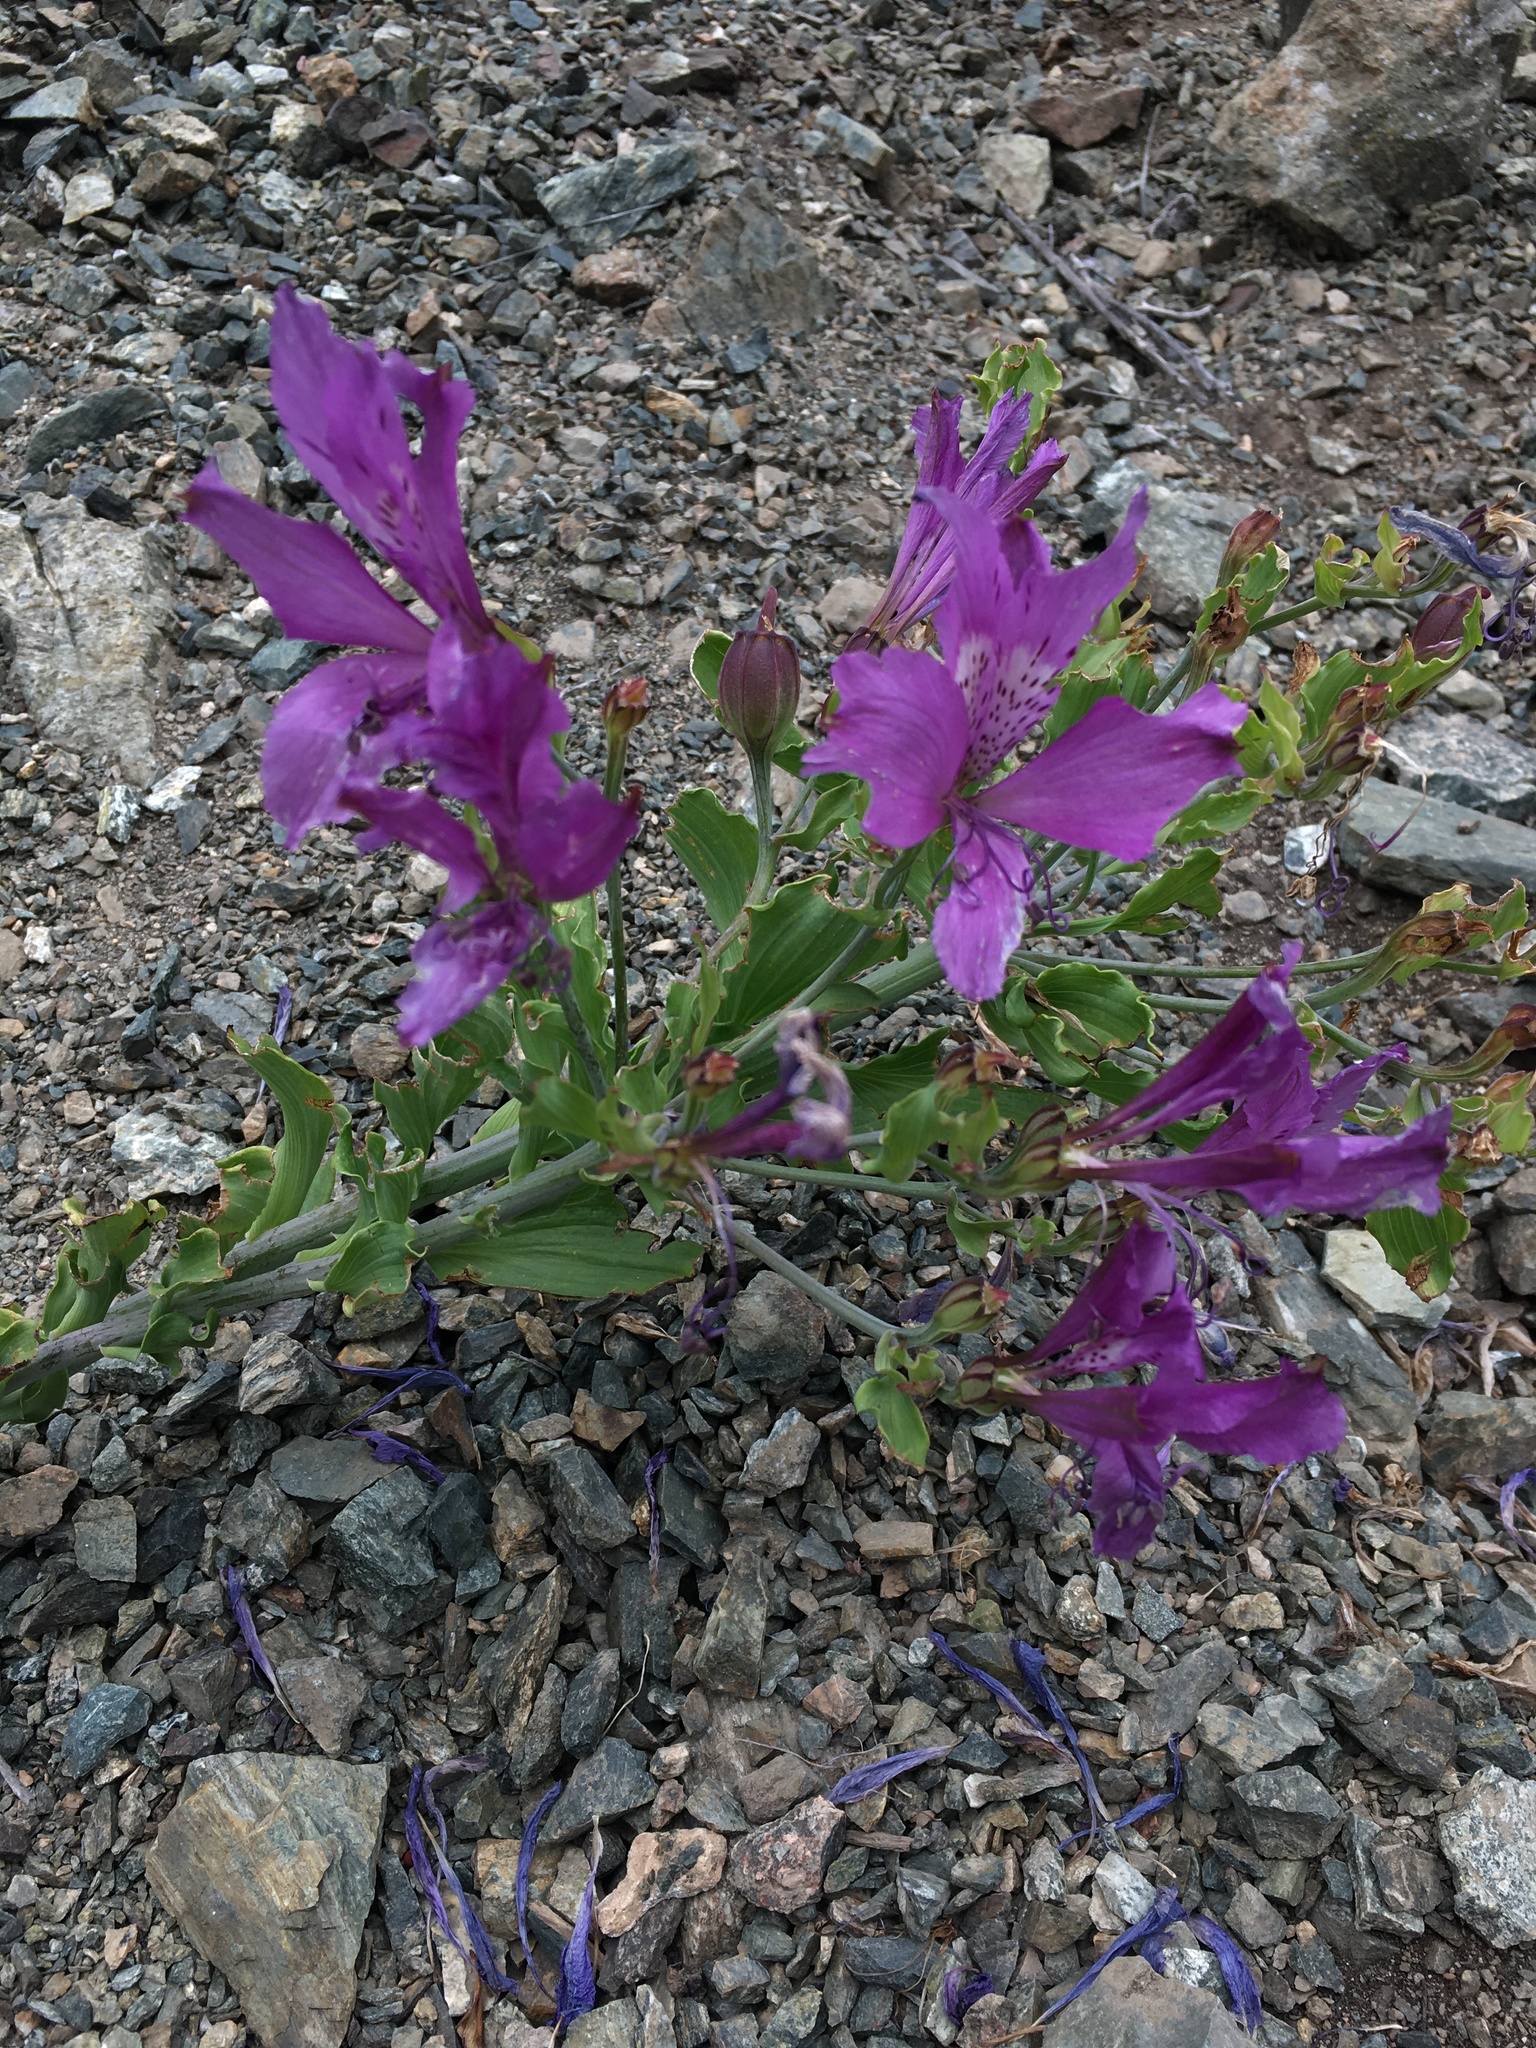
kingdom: Plantae
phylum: Tracheophyta
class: Liliopsida
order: Liliales
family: Alstroemeriaceae
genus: Alstroemeria
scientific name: Alstroemeria violacea
